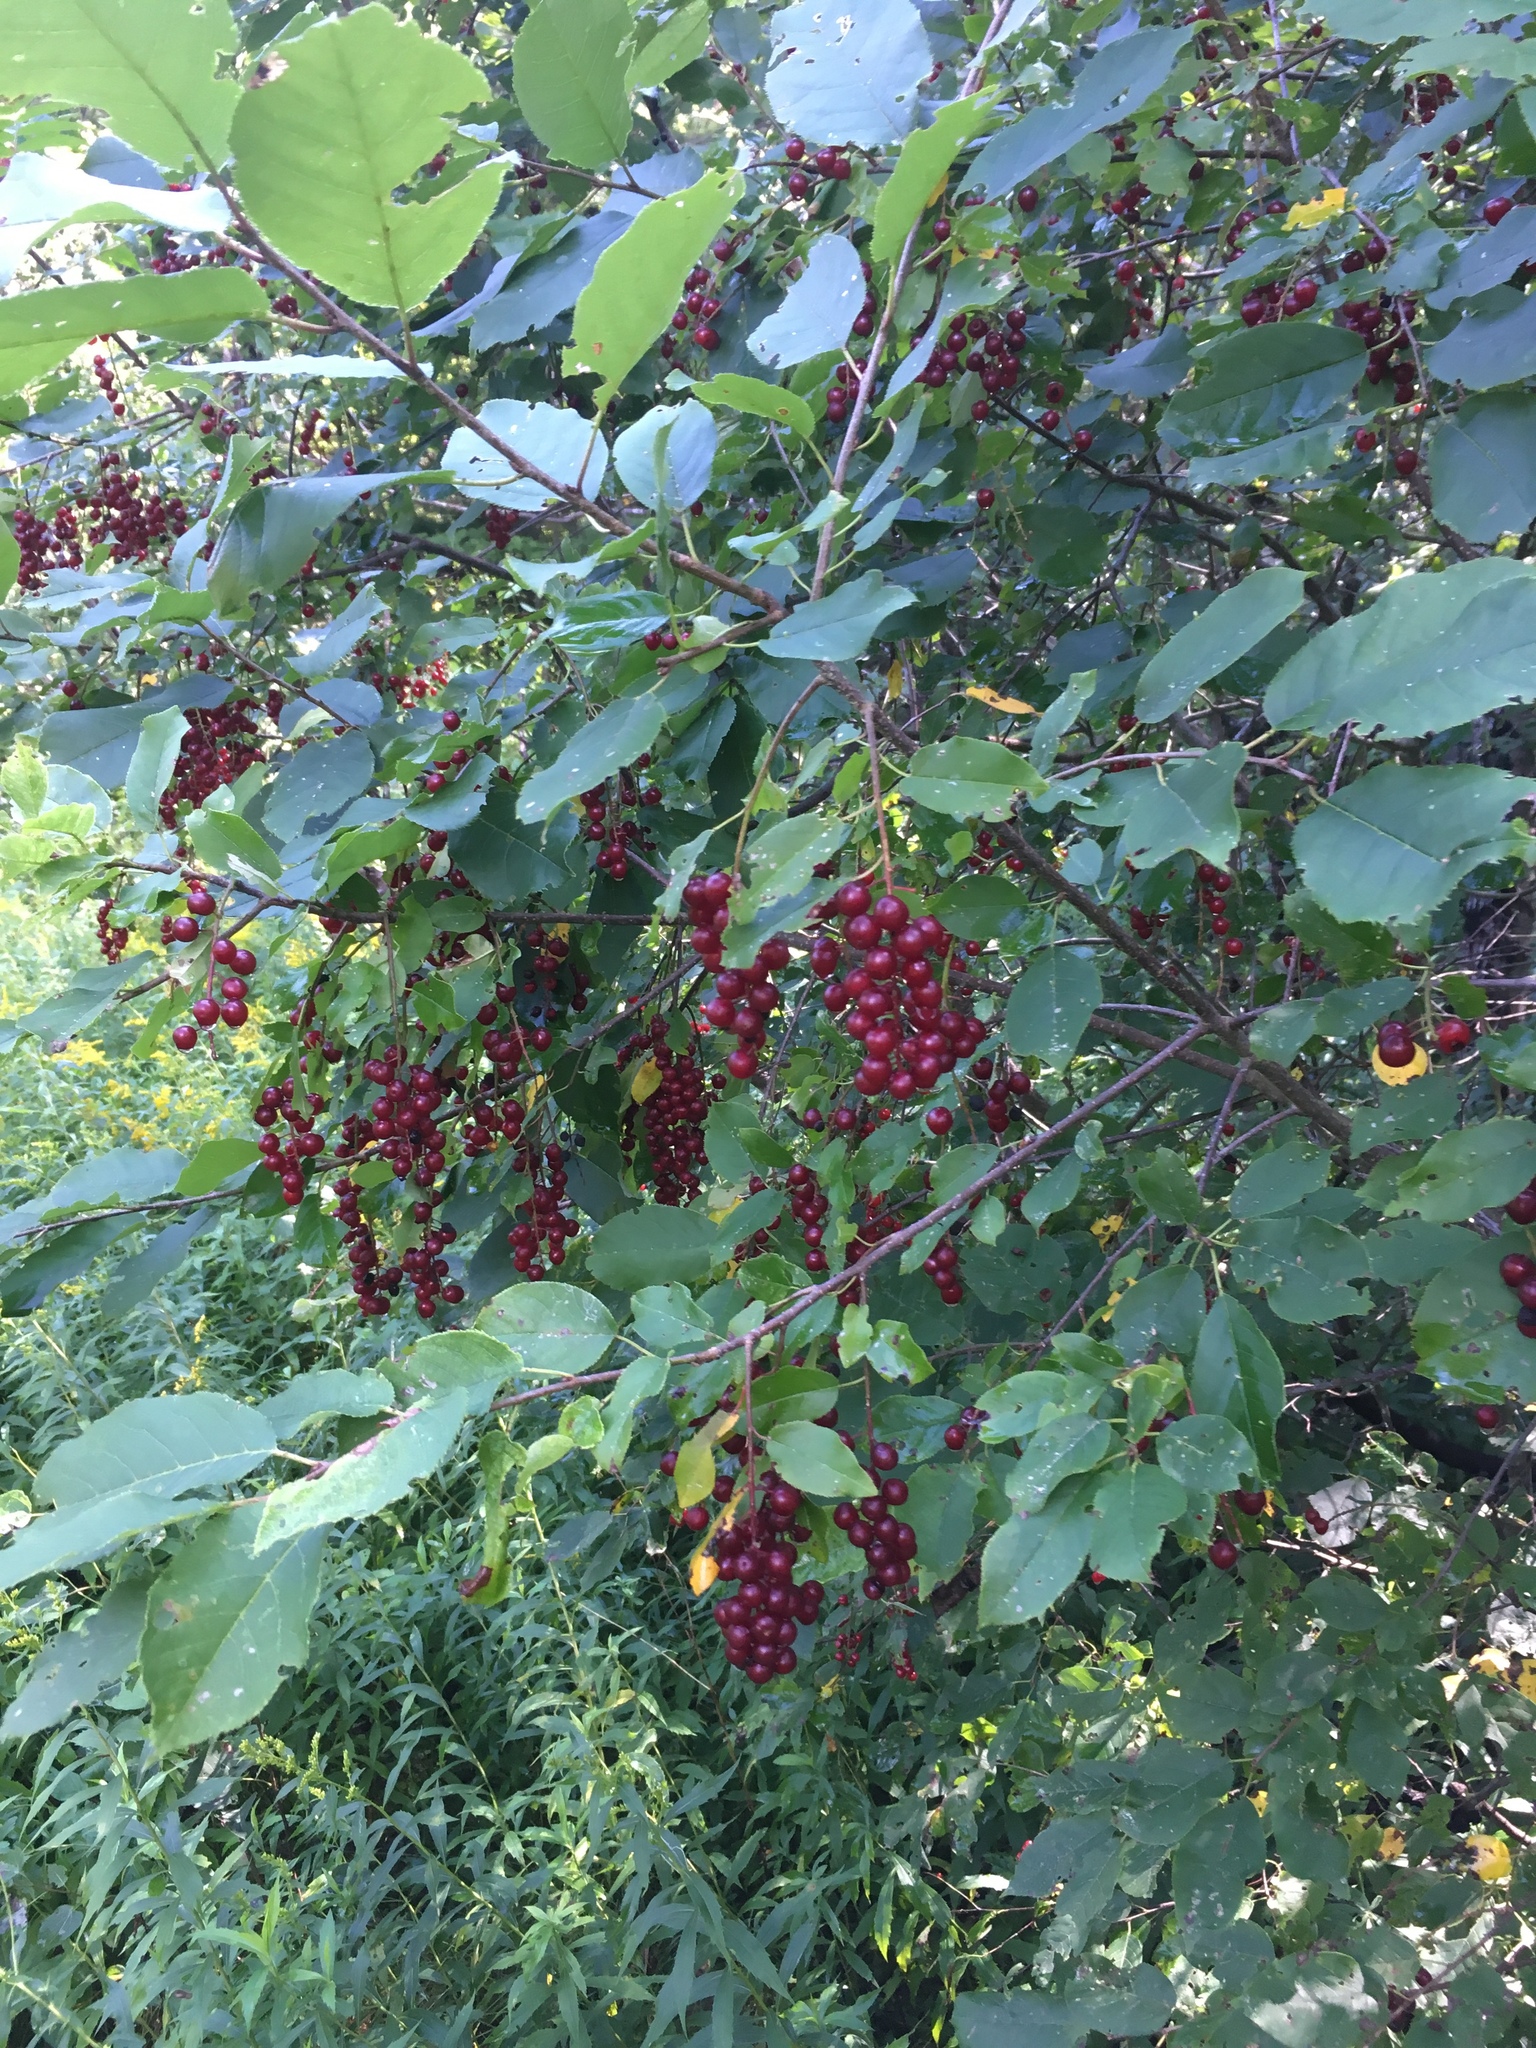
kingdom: Plantae
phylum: Tracheophyta
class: Magnoliopsida
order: Rosales
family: Rosaceae
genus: Prunus
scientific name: Prunus virginiana
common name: Chokecherry
